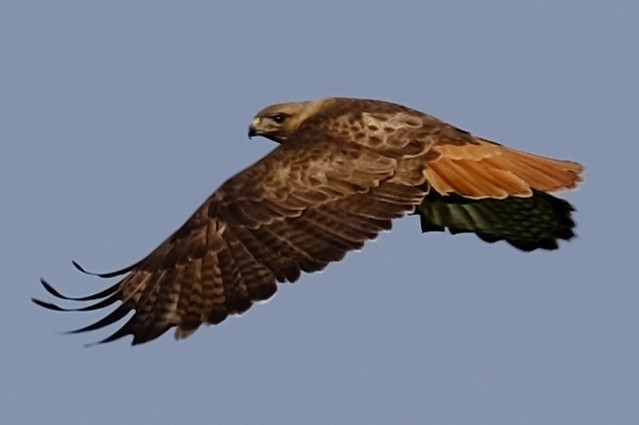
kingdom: Animalia
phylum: Chordata
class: Aves
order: Accipitriformes
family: Accipitridae
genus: Buteo
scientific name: Buteo jamaicensis
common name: Red-tailed hawk
